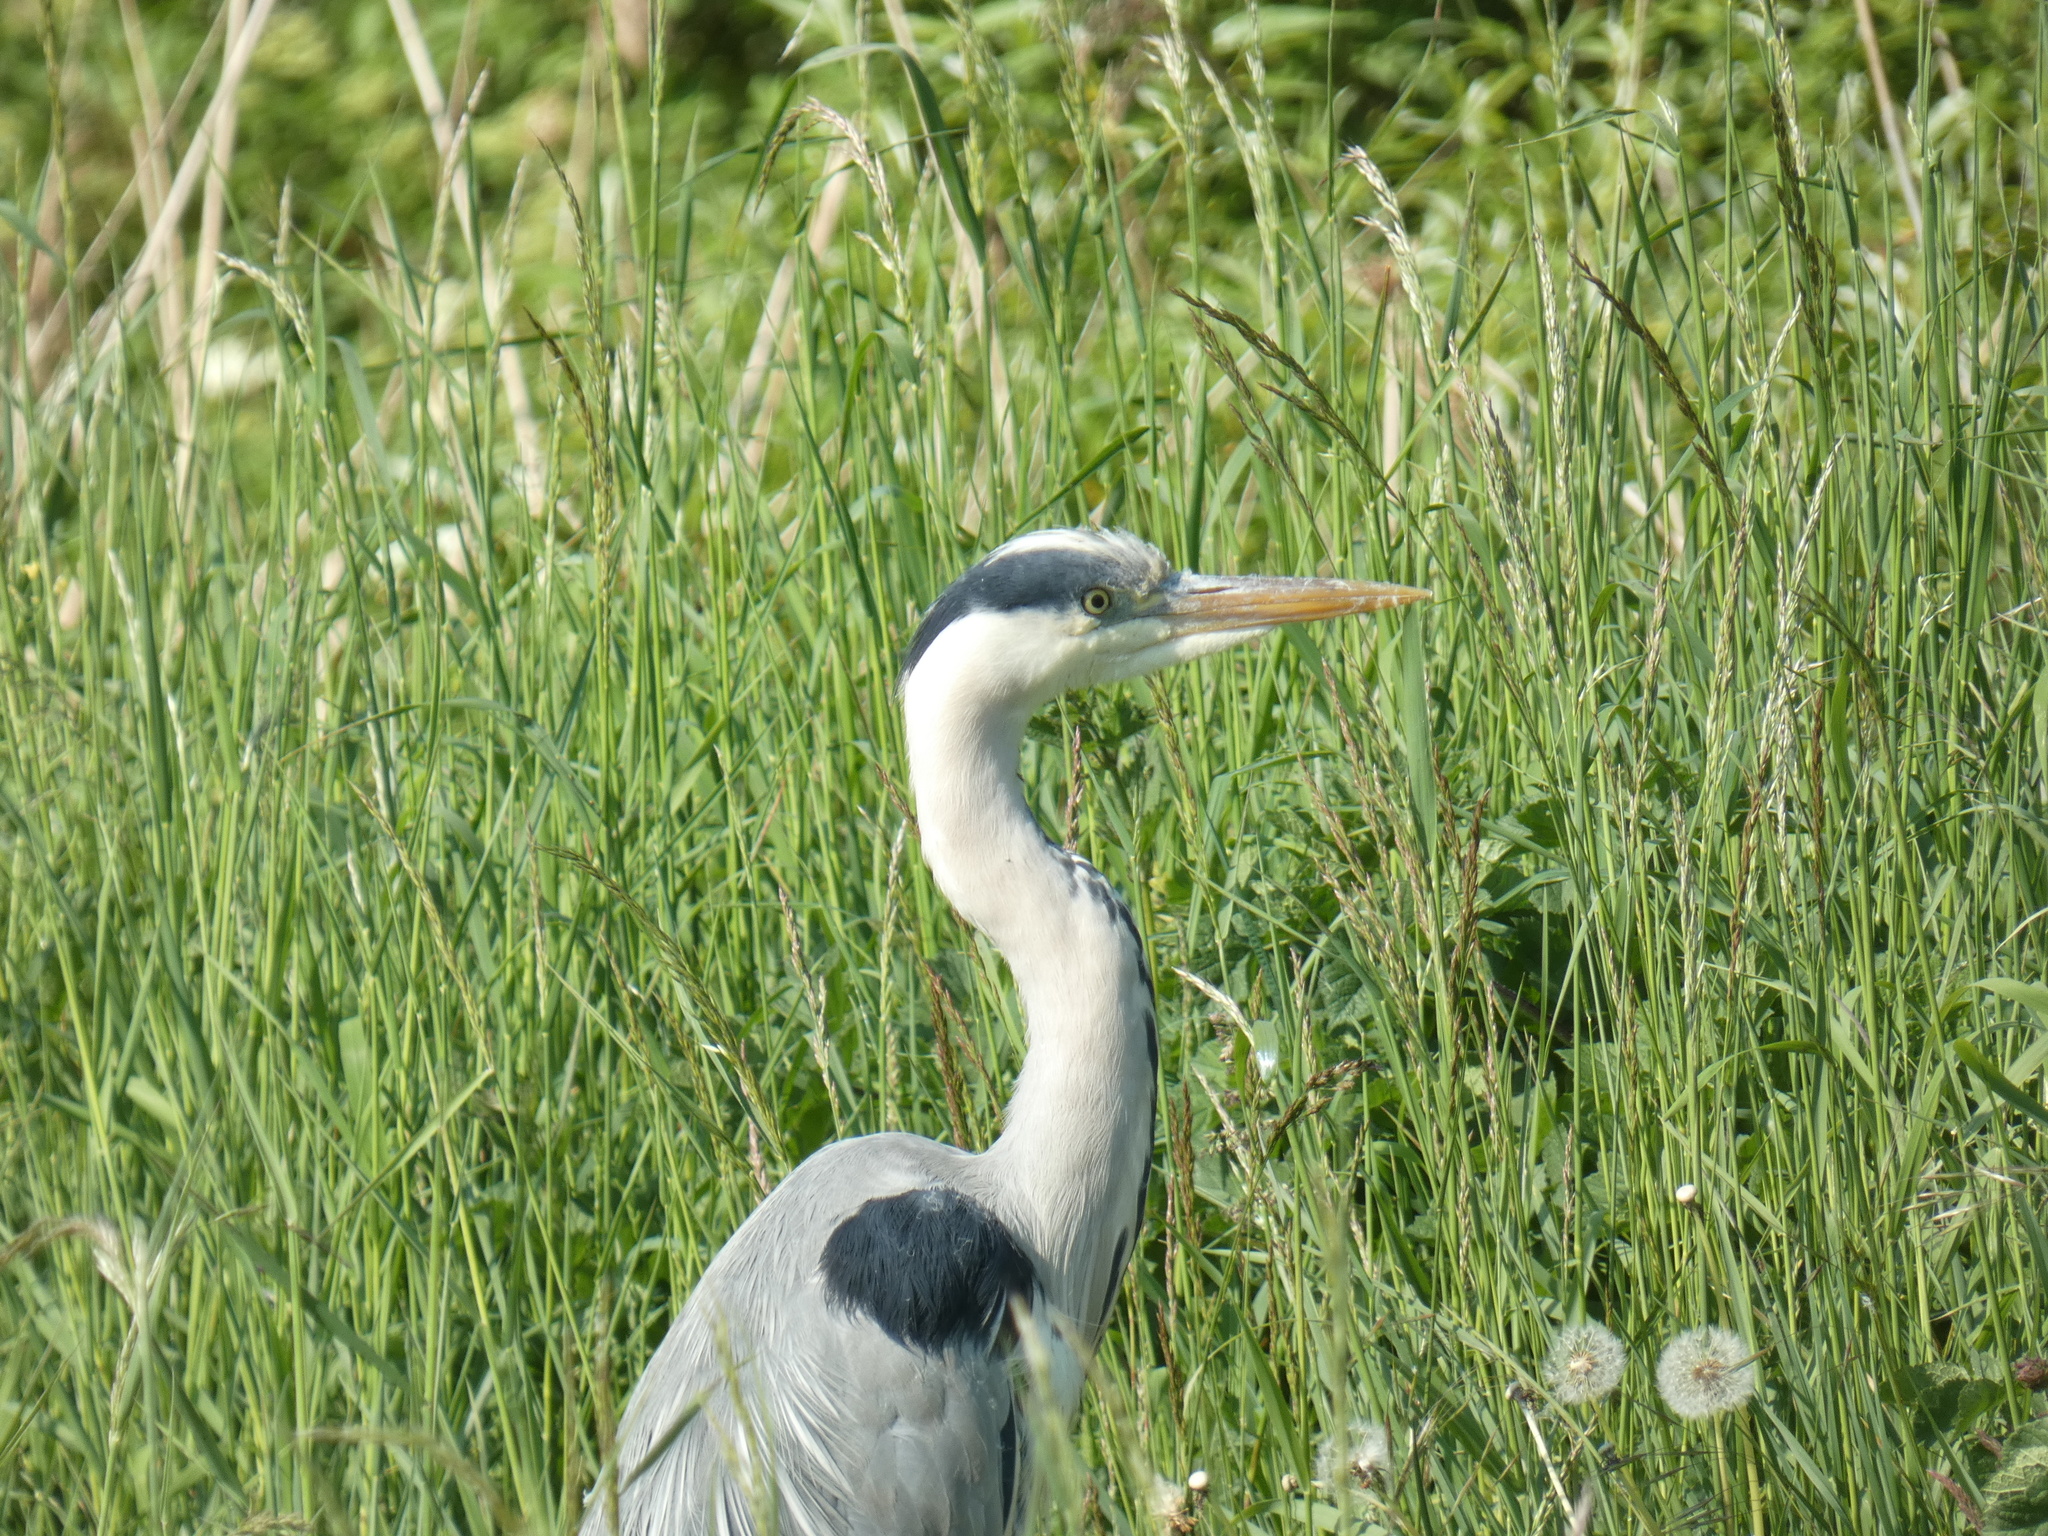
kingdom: Animalia
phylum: Chordata
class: Aves
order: Pelecaniformes
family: Ardeidae
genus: Ardea
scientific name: Ardea cinerea
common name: Grey heron
